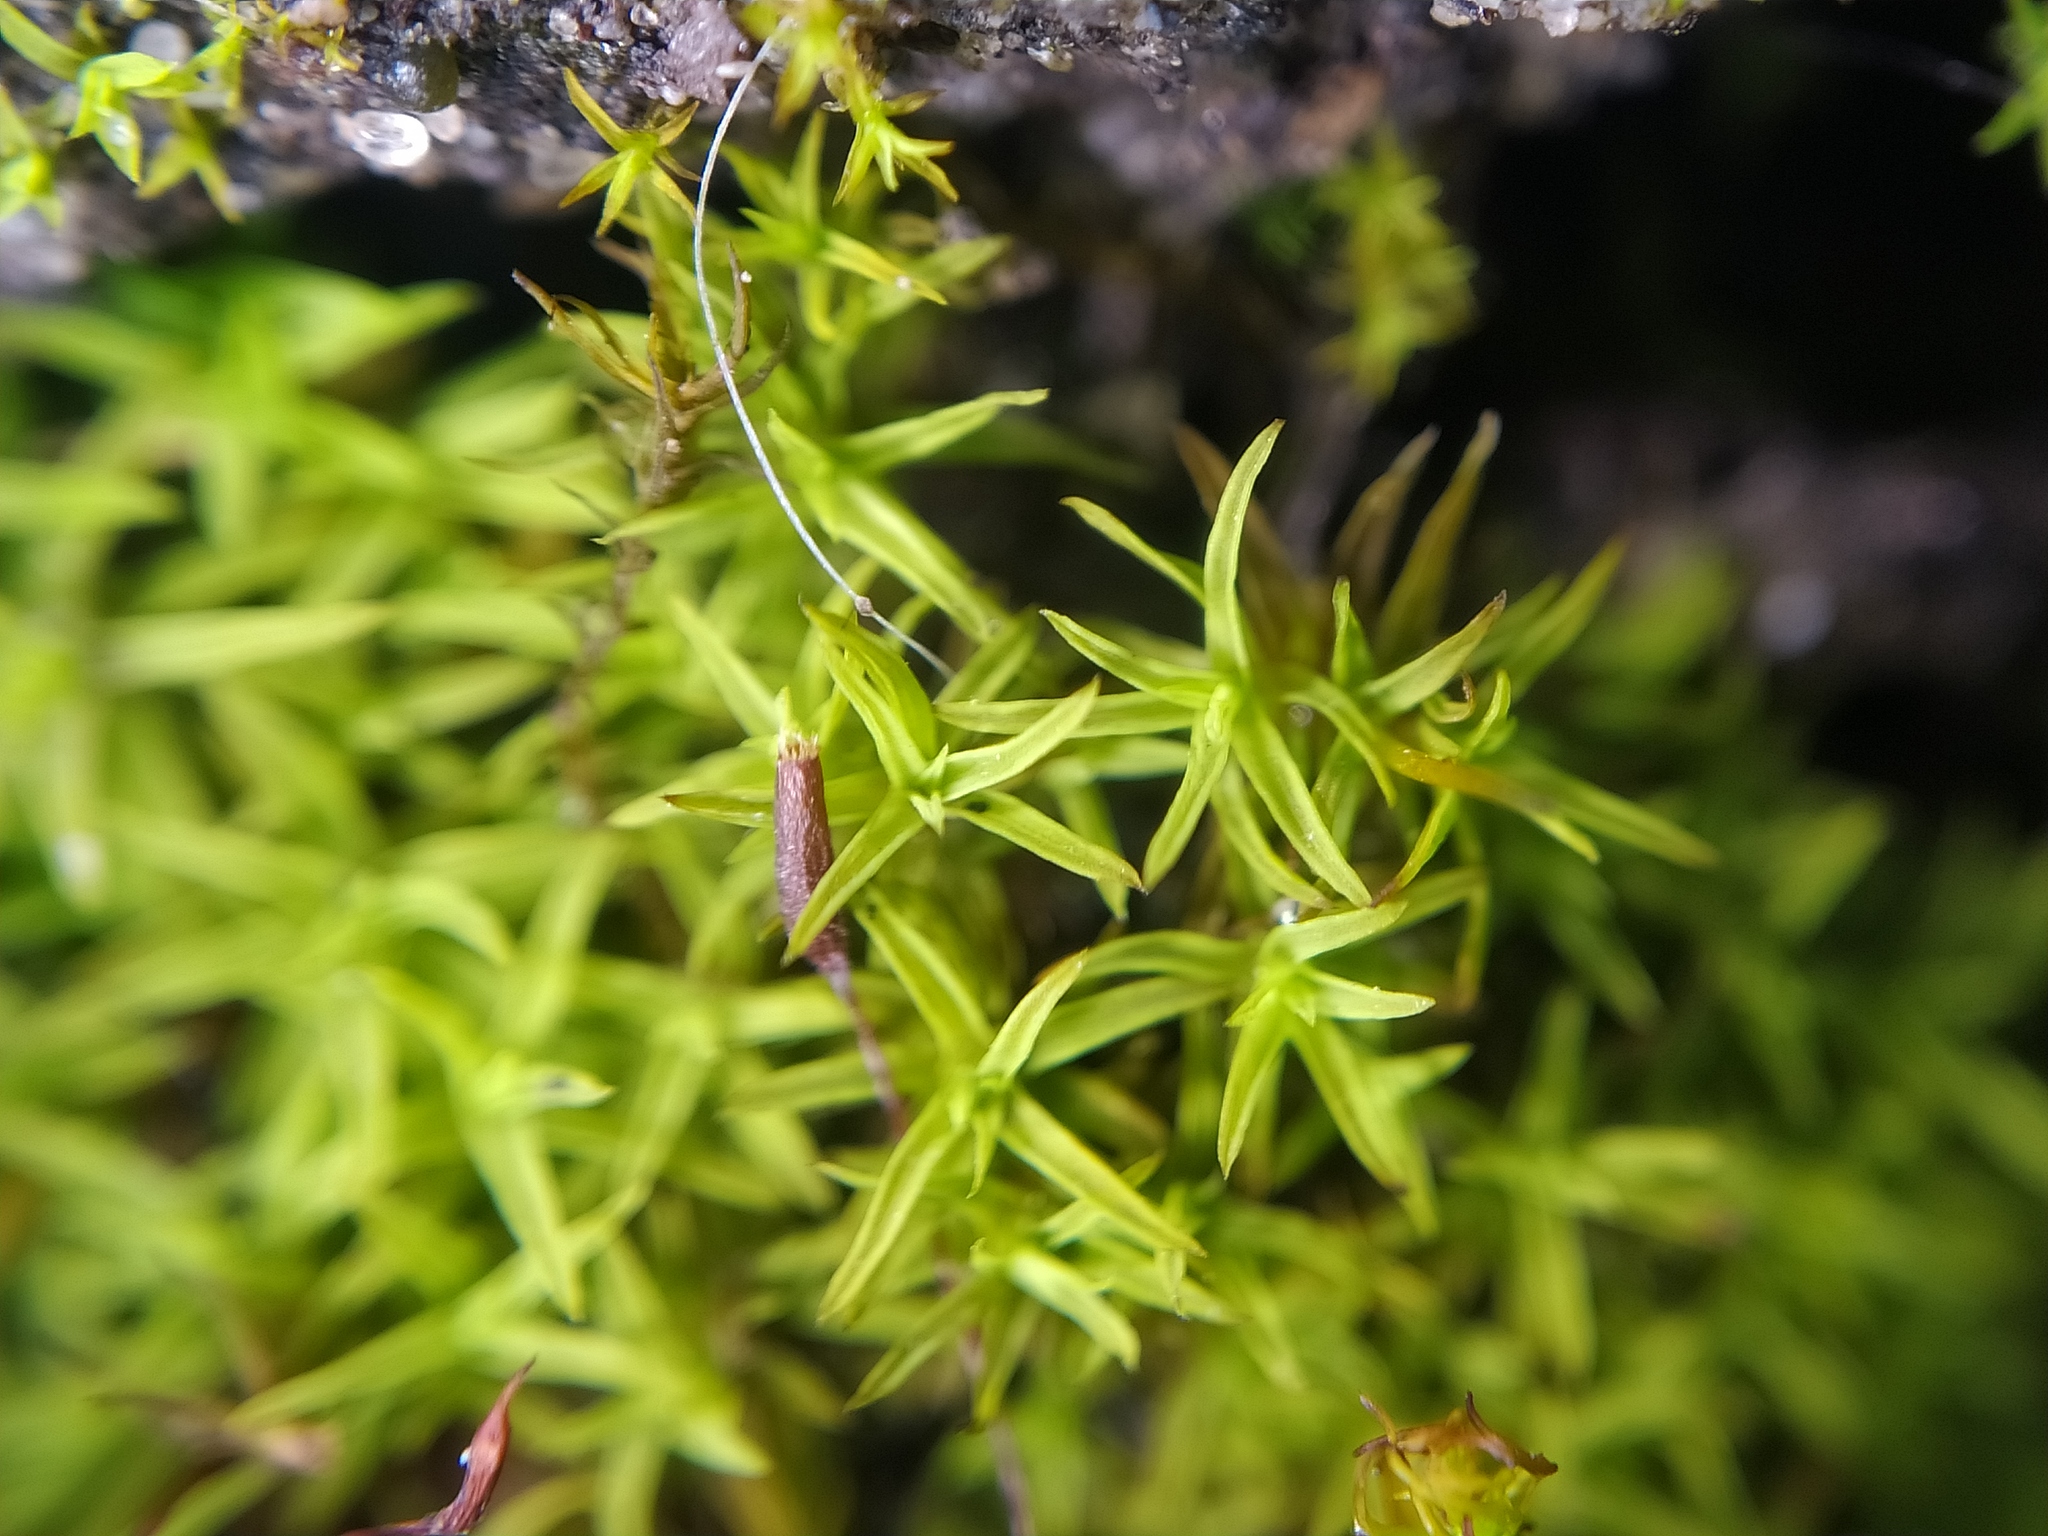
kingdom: Plantae
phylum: Bryophyta
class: Bryopsida
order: Pottiales
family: Pottiaceae
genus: Bryoerythrophyllum
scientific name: Bryoerythrophyllum recurvirostrum
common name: Red beard moss
